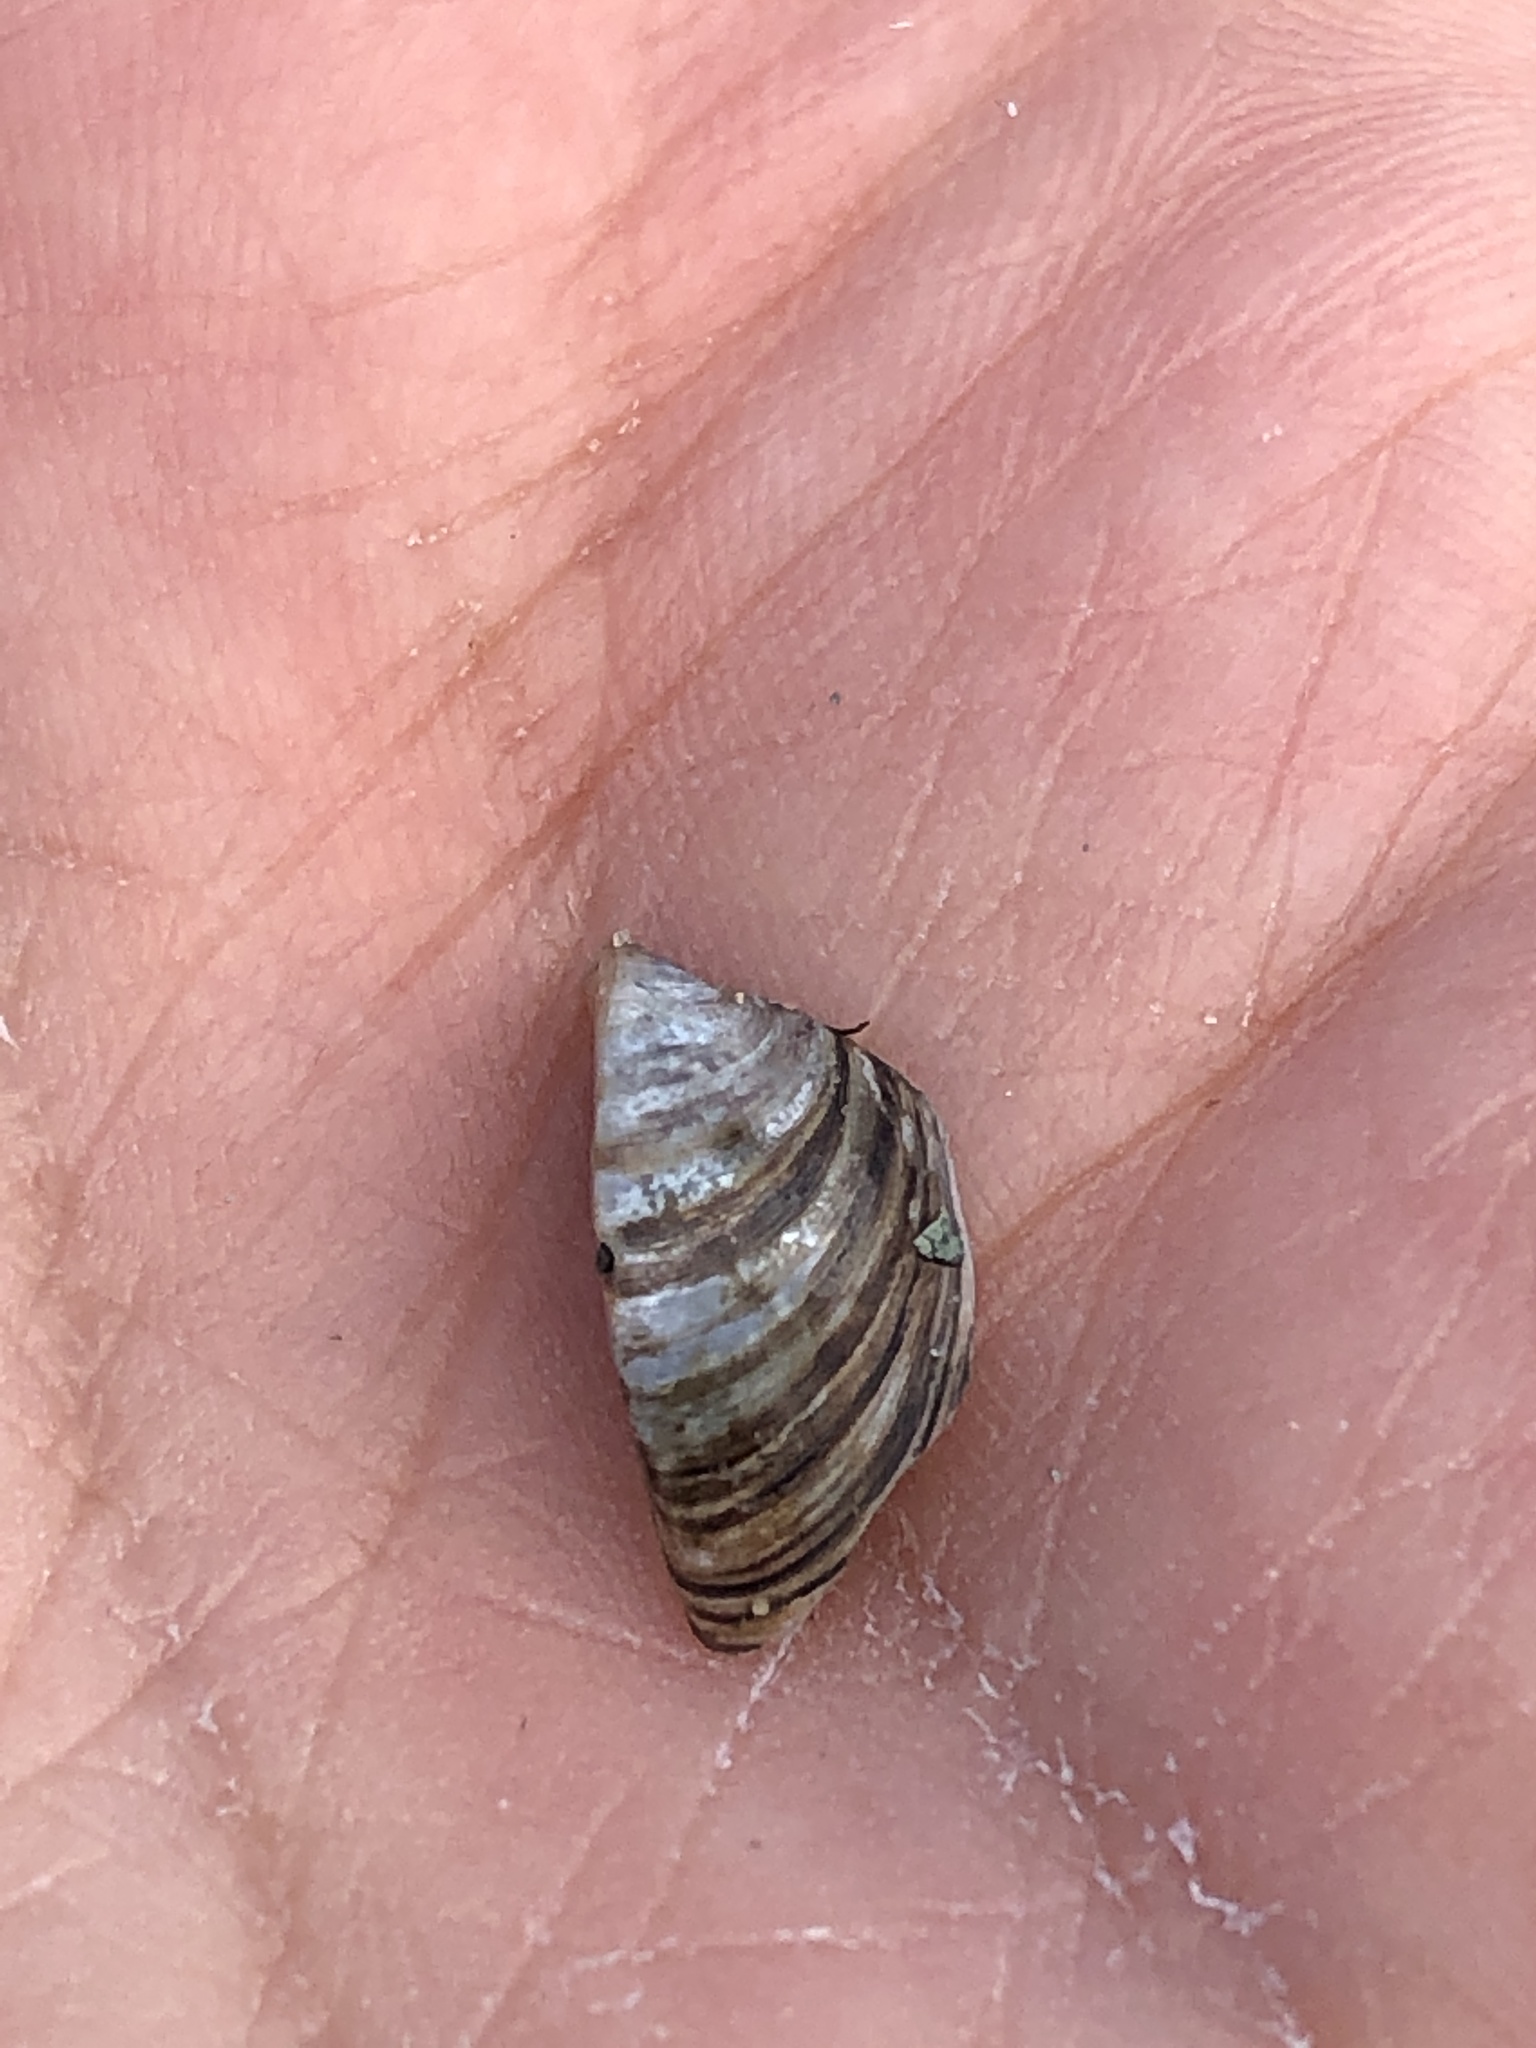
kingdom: Animalia
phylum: Mollusca
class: Bivalvia
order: Myida
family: Dreissenidae
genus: Dreissena
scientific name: Dreissena polymorpha
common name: Zebra mussel
